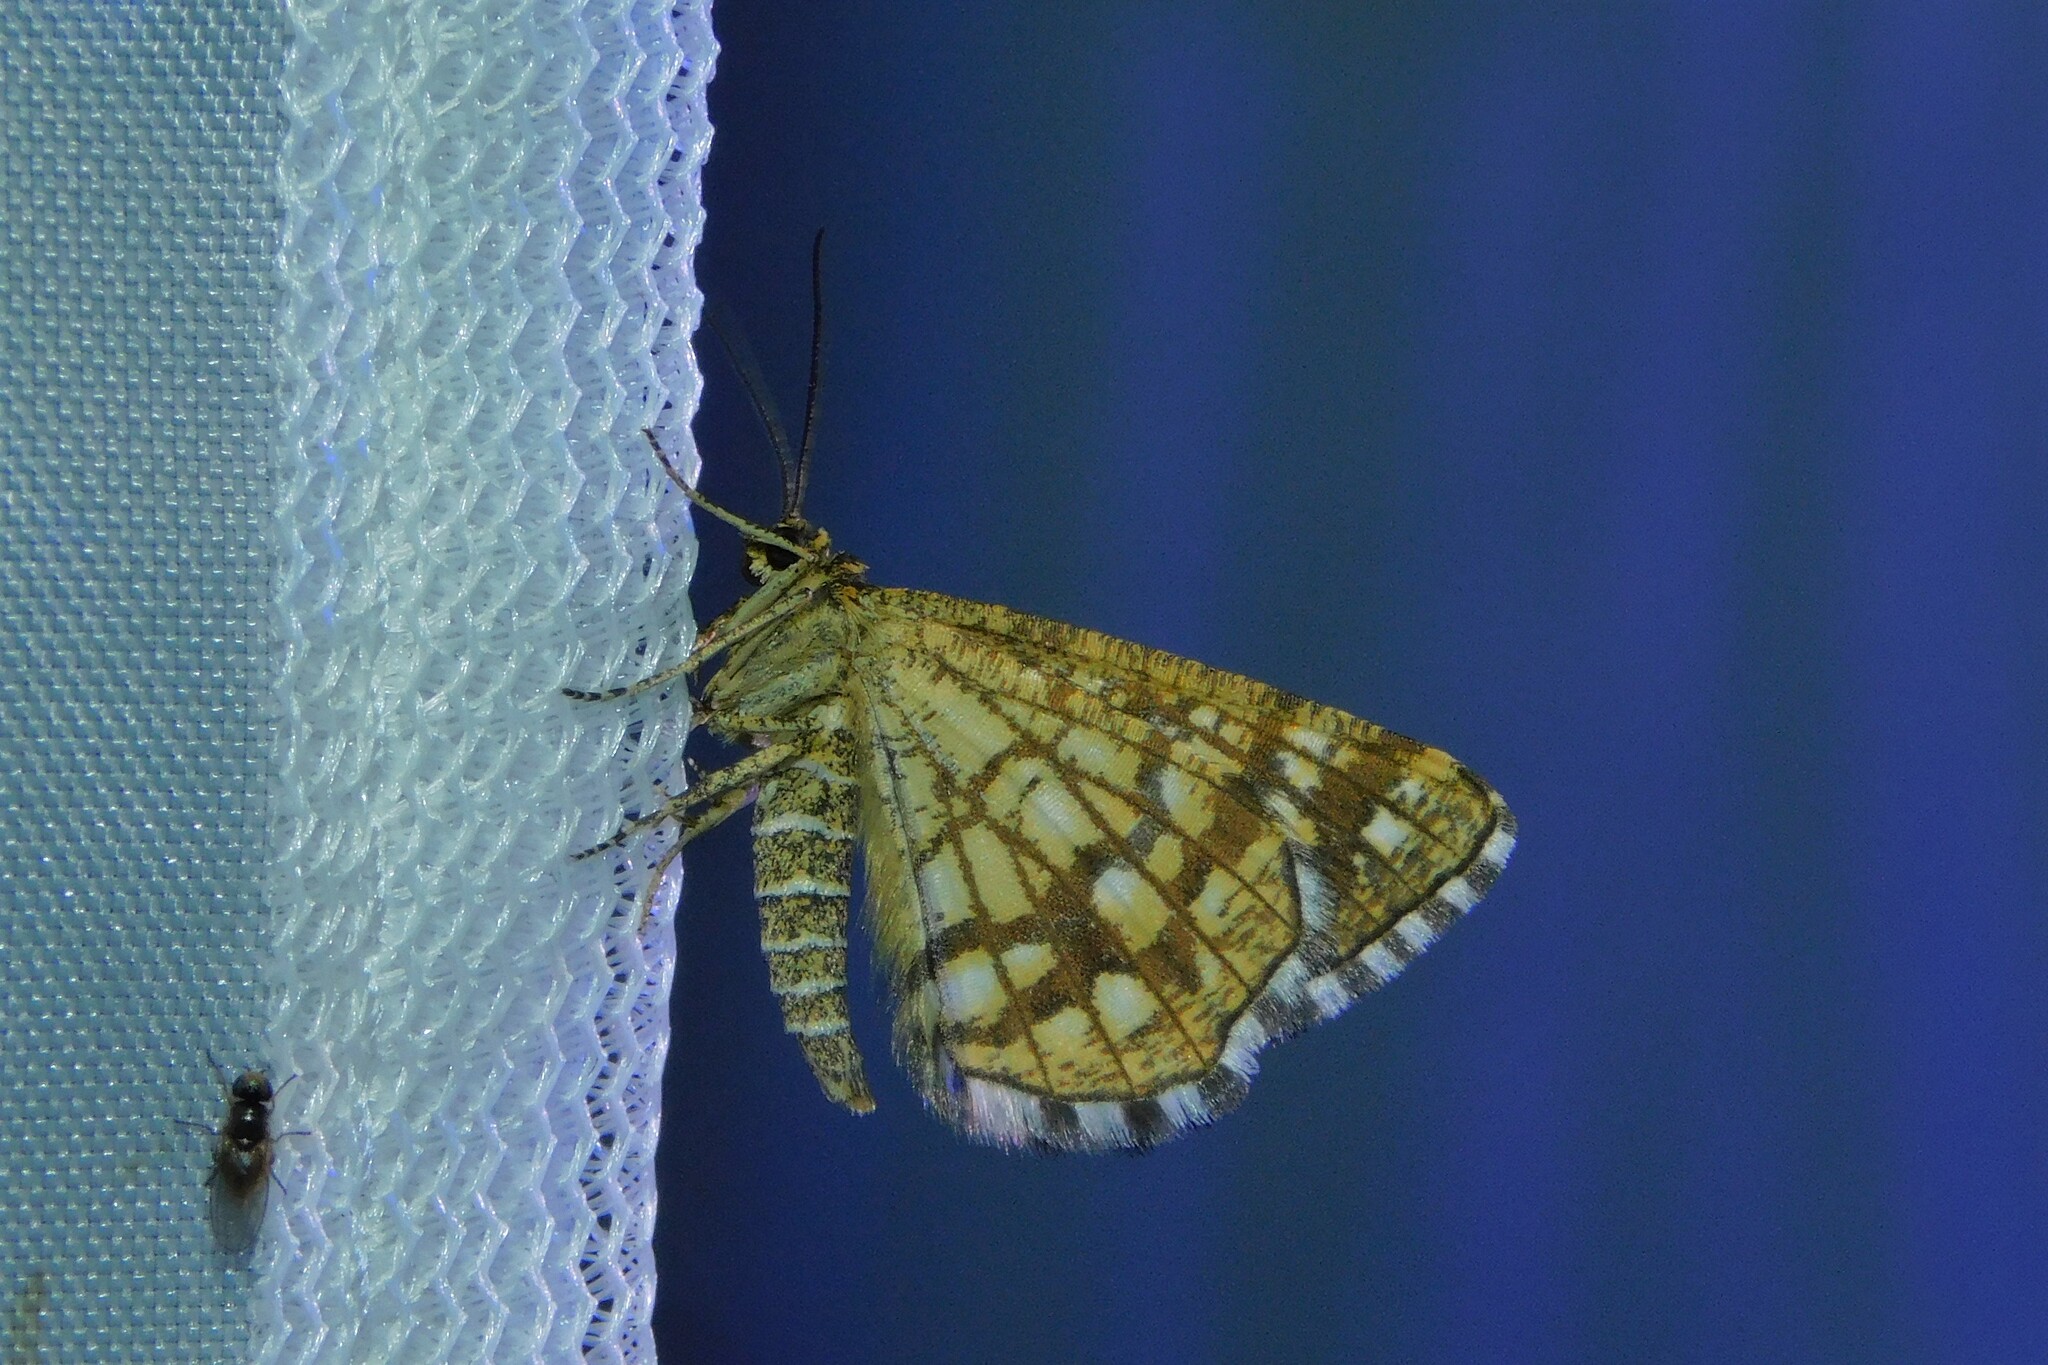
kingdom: Animalia
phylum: Arthropoda
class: Insecta
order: Lepidoptera
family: Geometridae
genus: Chiasmia
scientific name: Chiasmia clathrata
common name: Latticed heath
